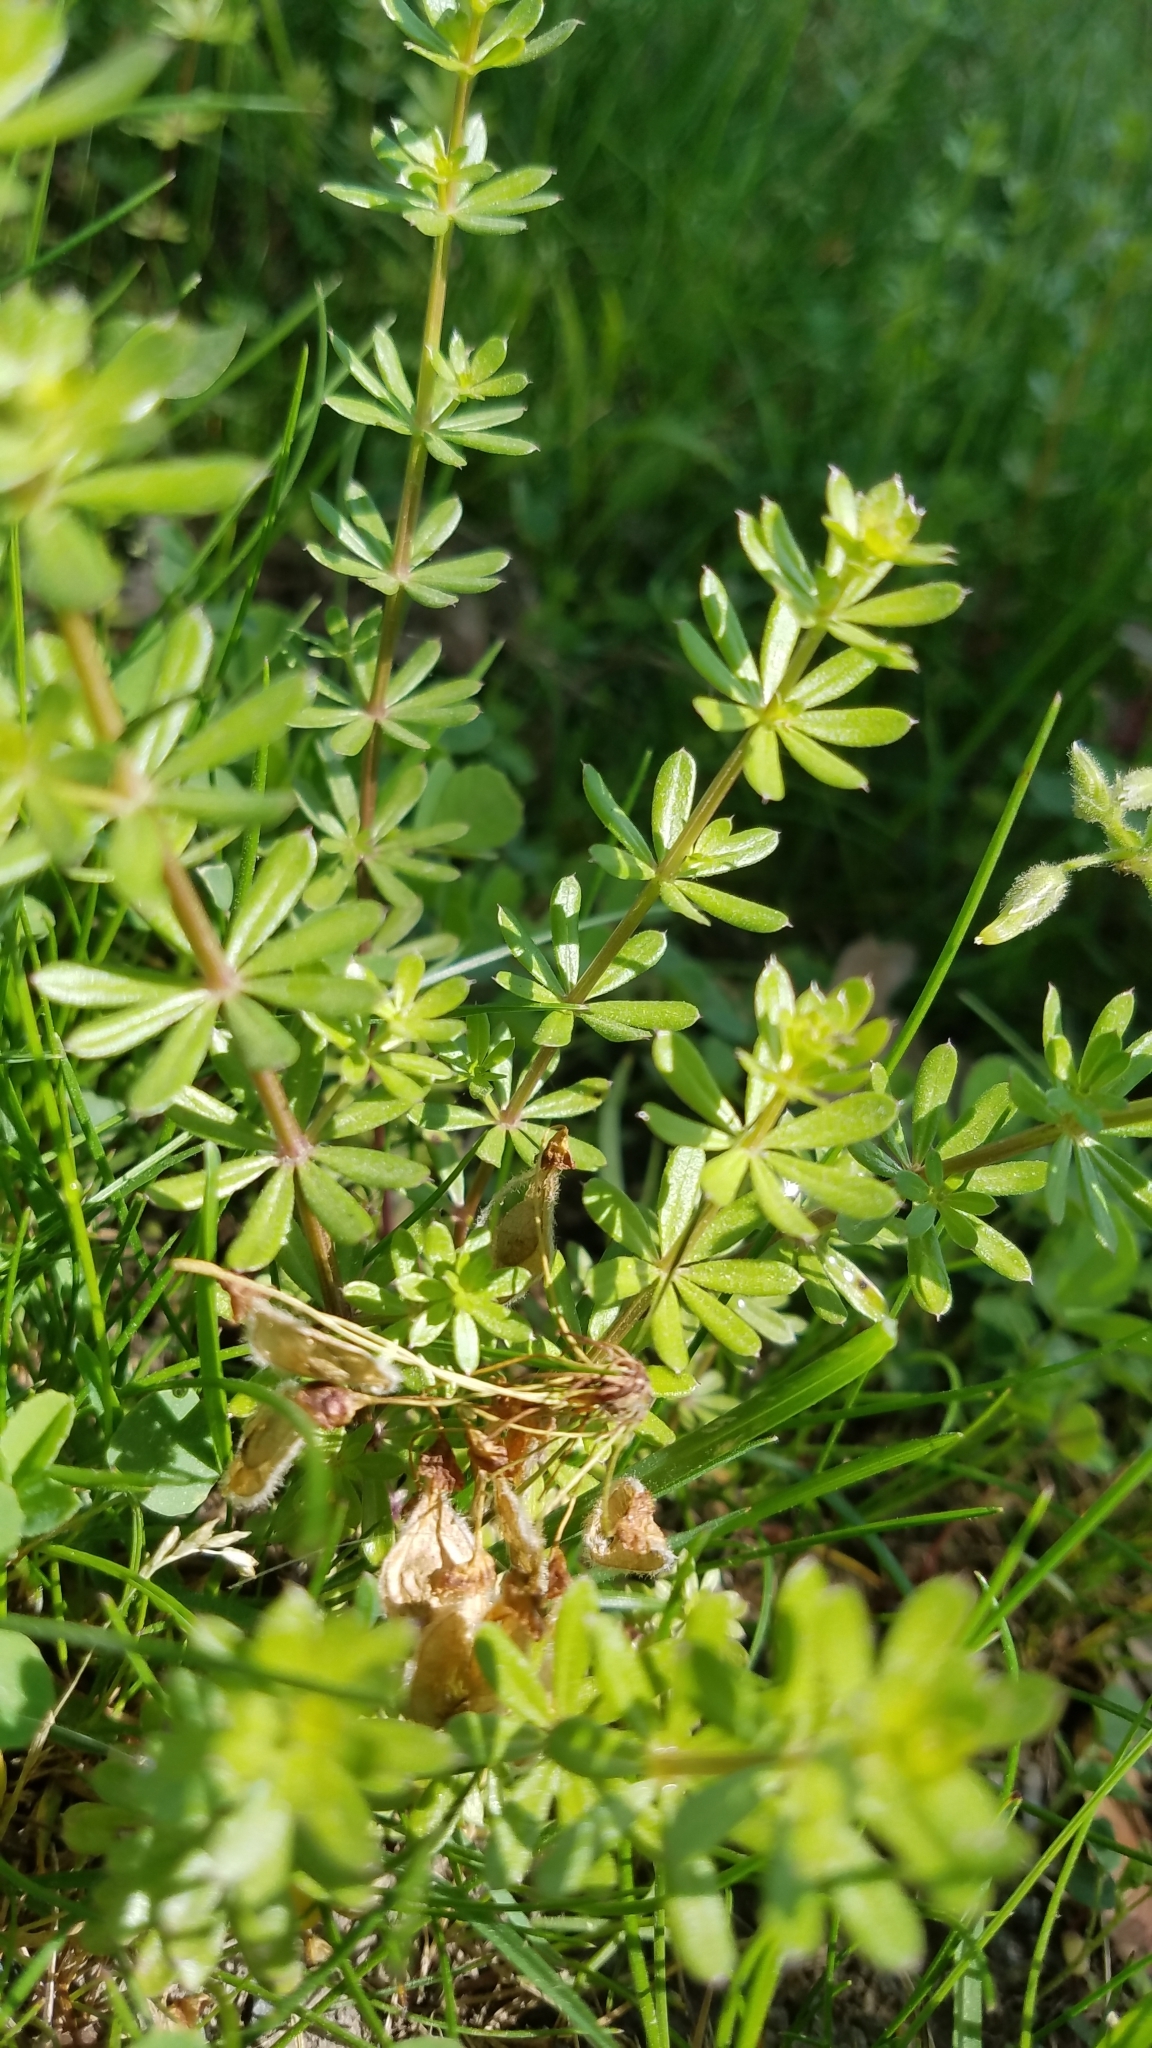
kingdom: Plantae
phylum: Tracheophyta
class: Magnoliopsida
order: Gentianales
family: Rubiaceae
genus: Galium
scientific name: Galium mollugo
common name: Hedge bedstraw
